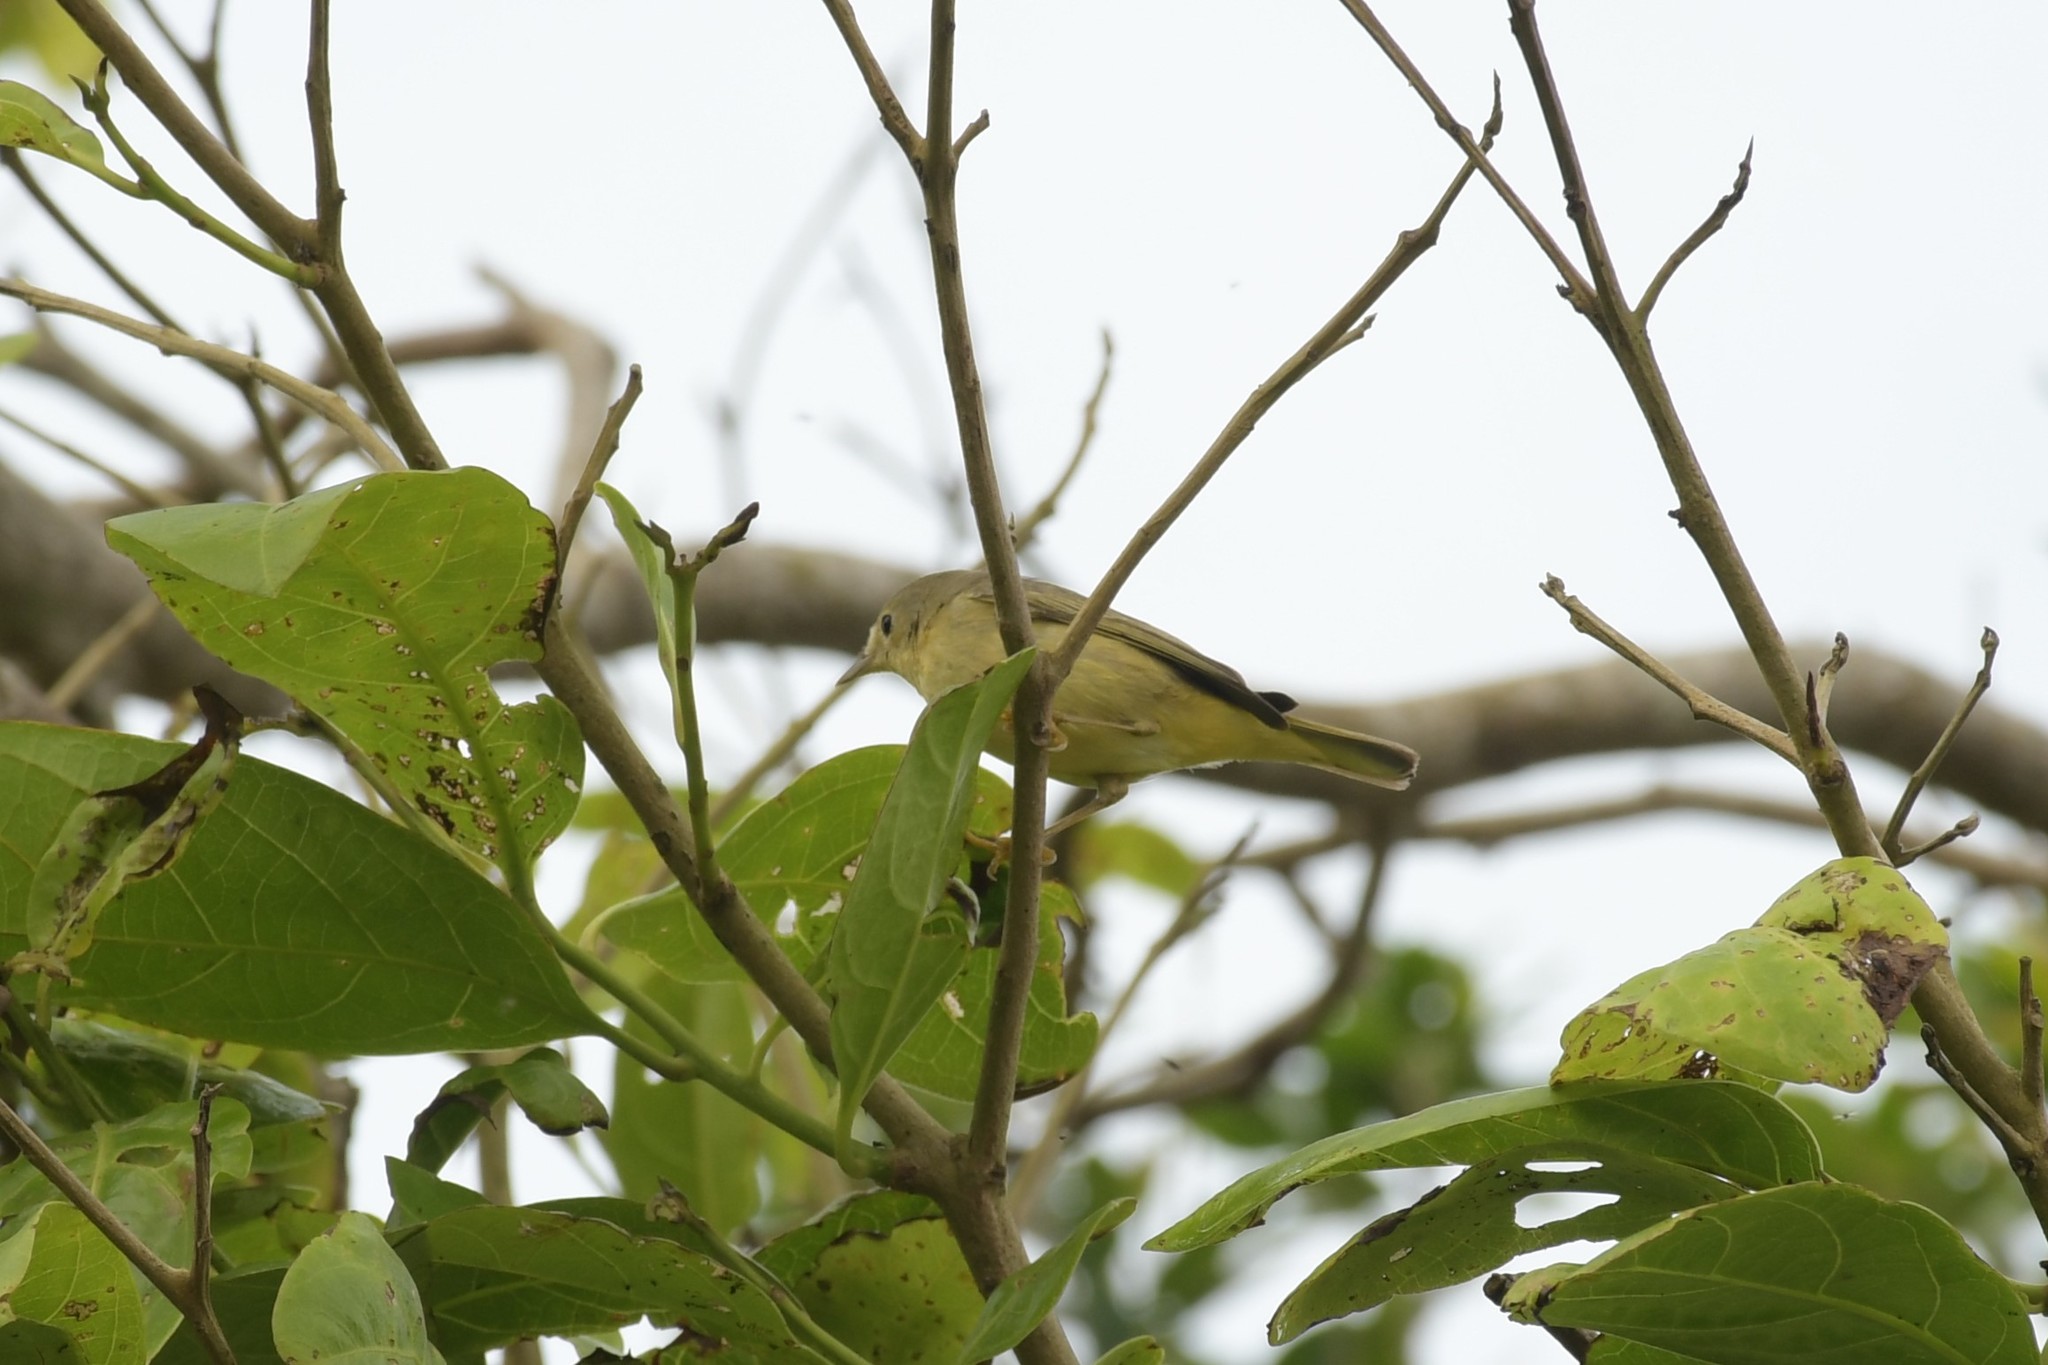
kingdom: Animalia
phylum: Chordata
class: Aves
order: Passeriformes
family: Parulidae
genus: Setophaga
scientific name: Setophaga petechia
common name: Yellow warbler
